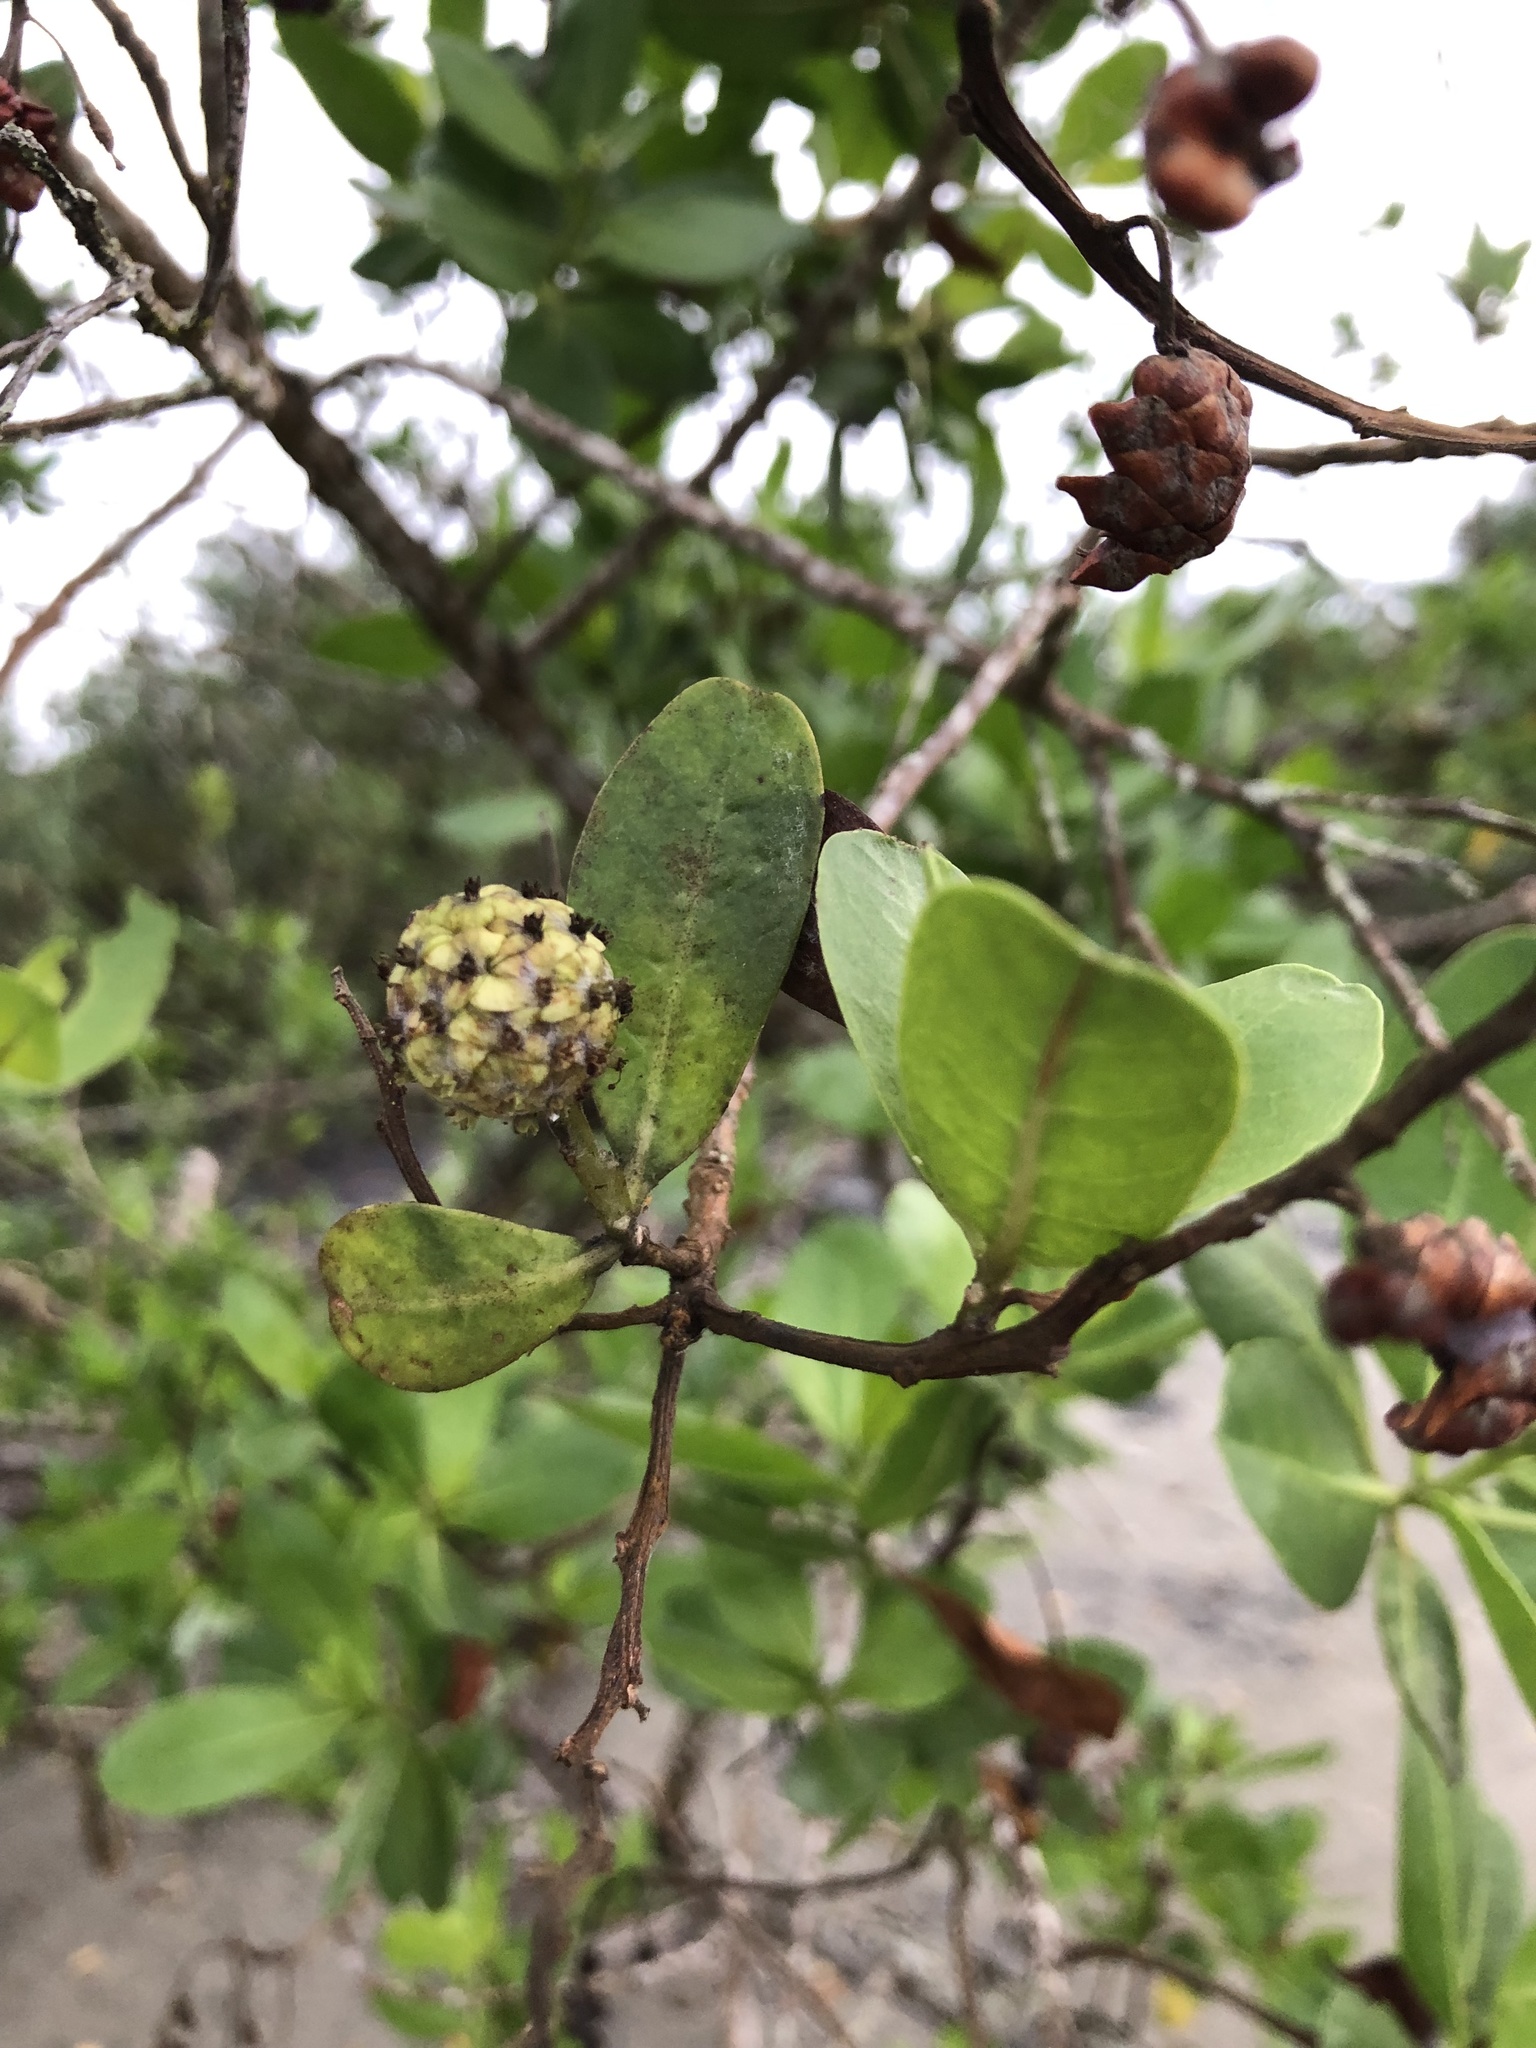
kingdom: Plantae
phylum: Tracheophyta
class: Magnoliopsida
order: Myrtales
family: Combretaceae
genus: Conocarpus
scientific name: Conocarpus erectus
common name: Button mangrove
